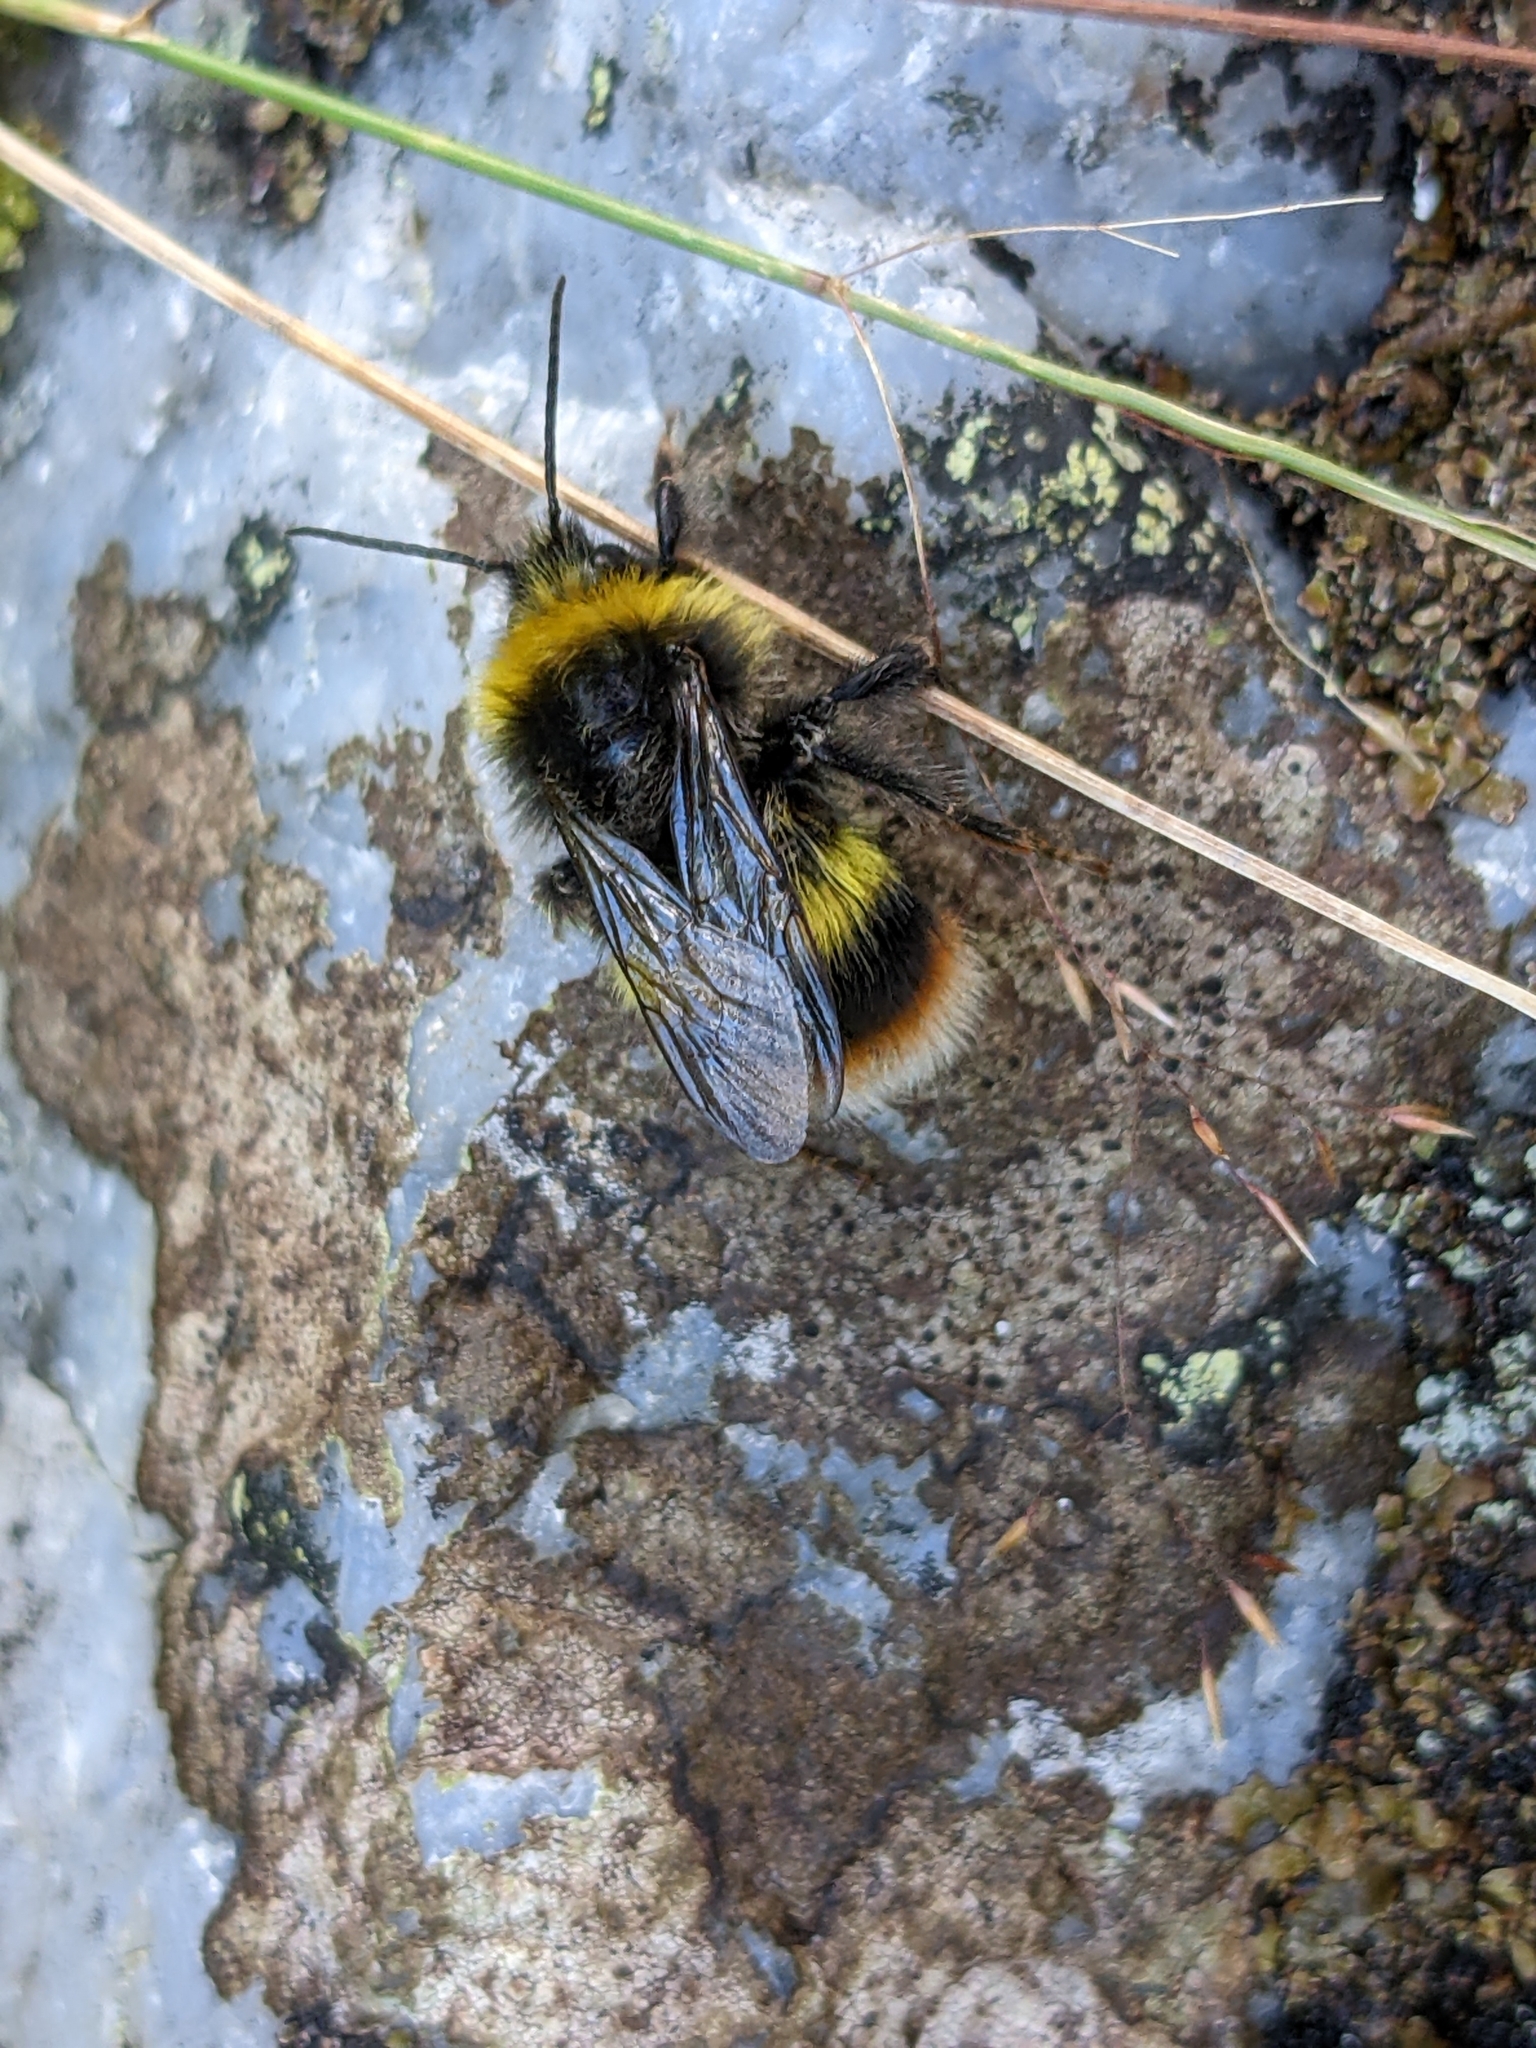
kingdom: Animalia
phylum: Arthropoda
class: Insecta
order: Hymenoptera
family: Apidae
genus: Bombus
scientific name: Bombus soroeensis
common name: Broken-belted humble-bee
